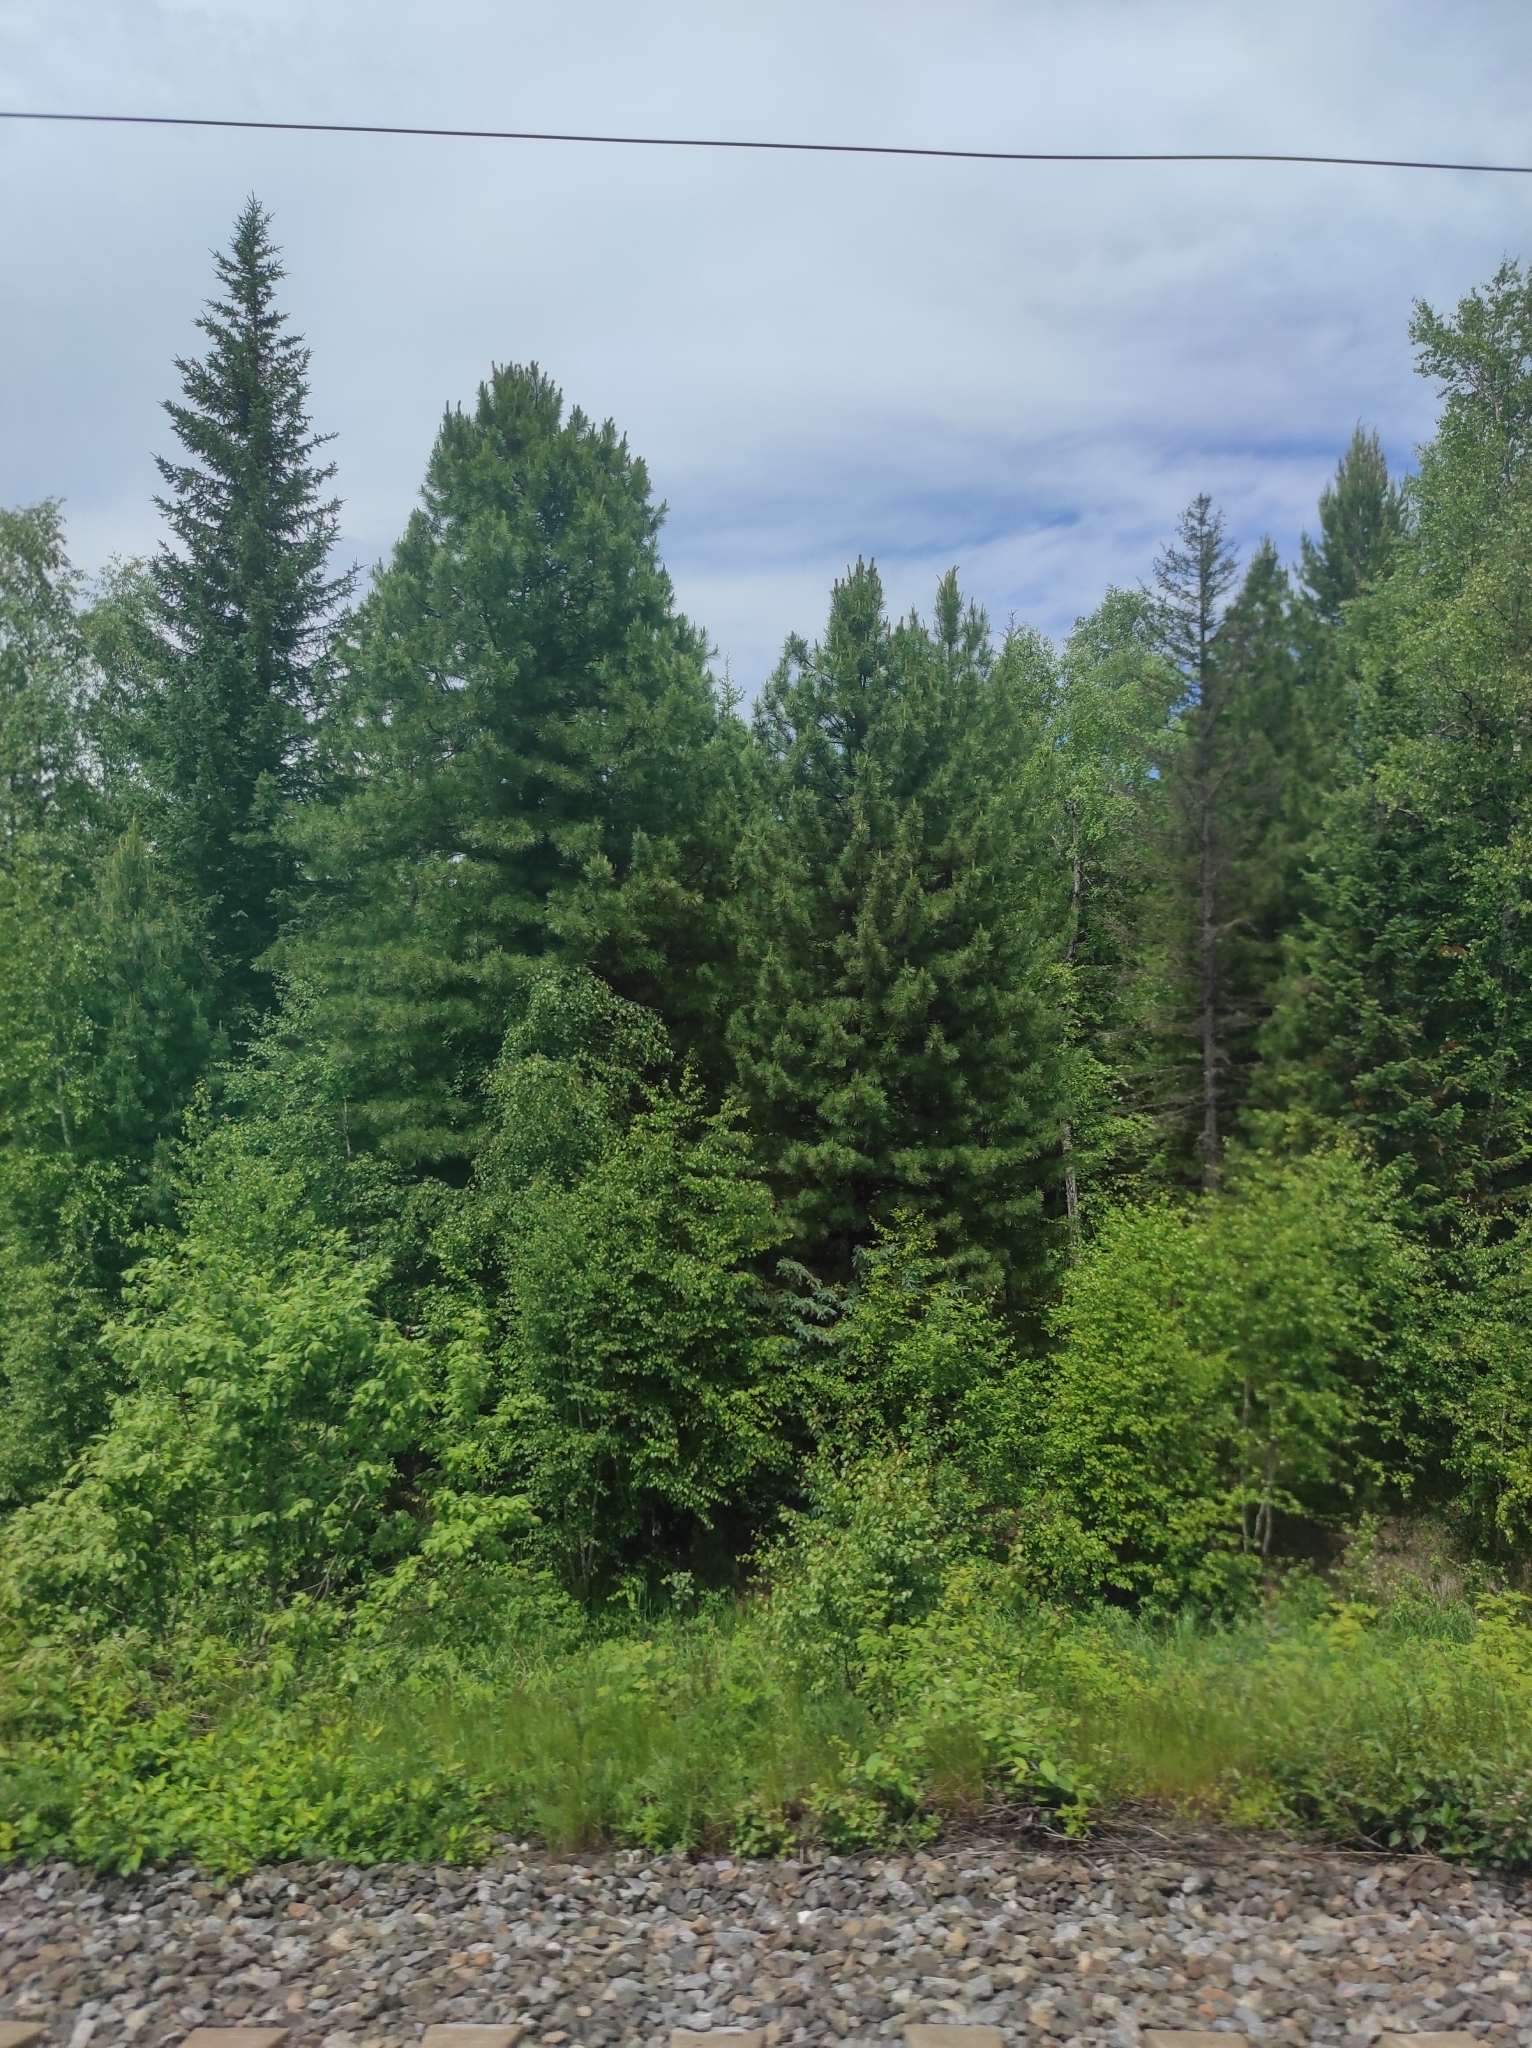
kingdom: Plantae
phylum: Tracheophyta
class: Pinopsida
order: Pinales
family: Pinaceae
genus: Picea
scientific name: Picea obovata
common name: Siberian spruce
